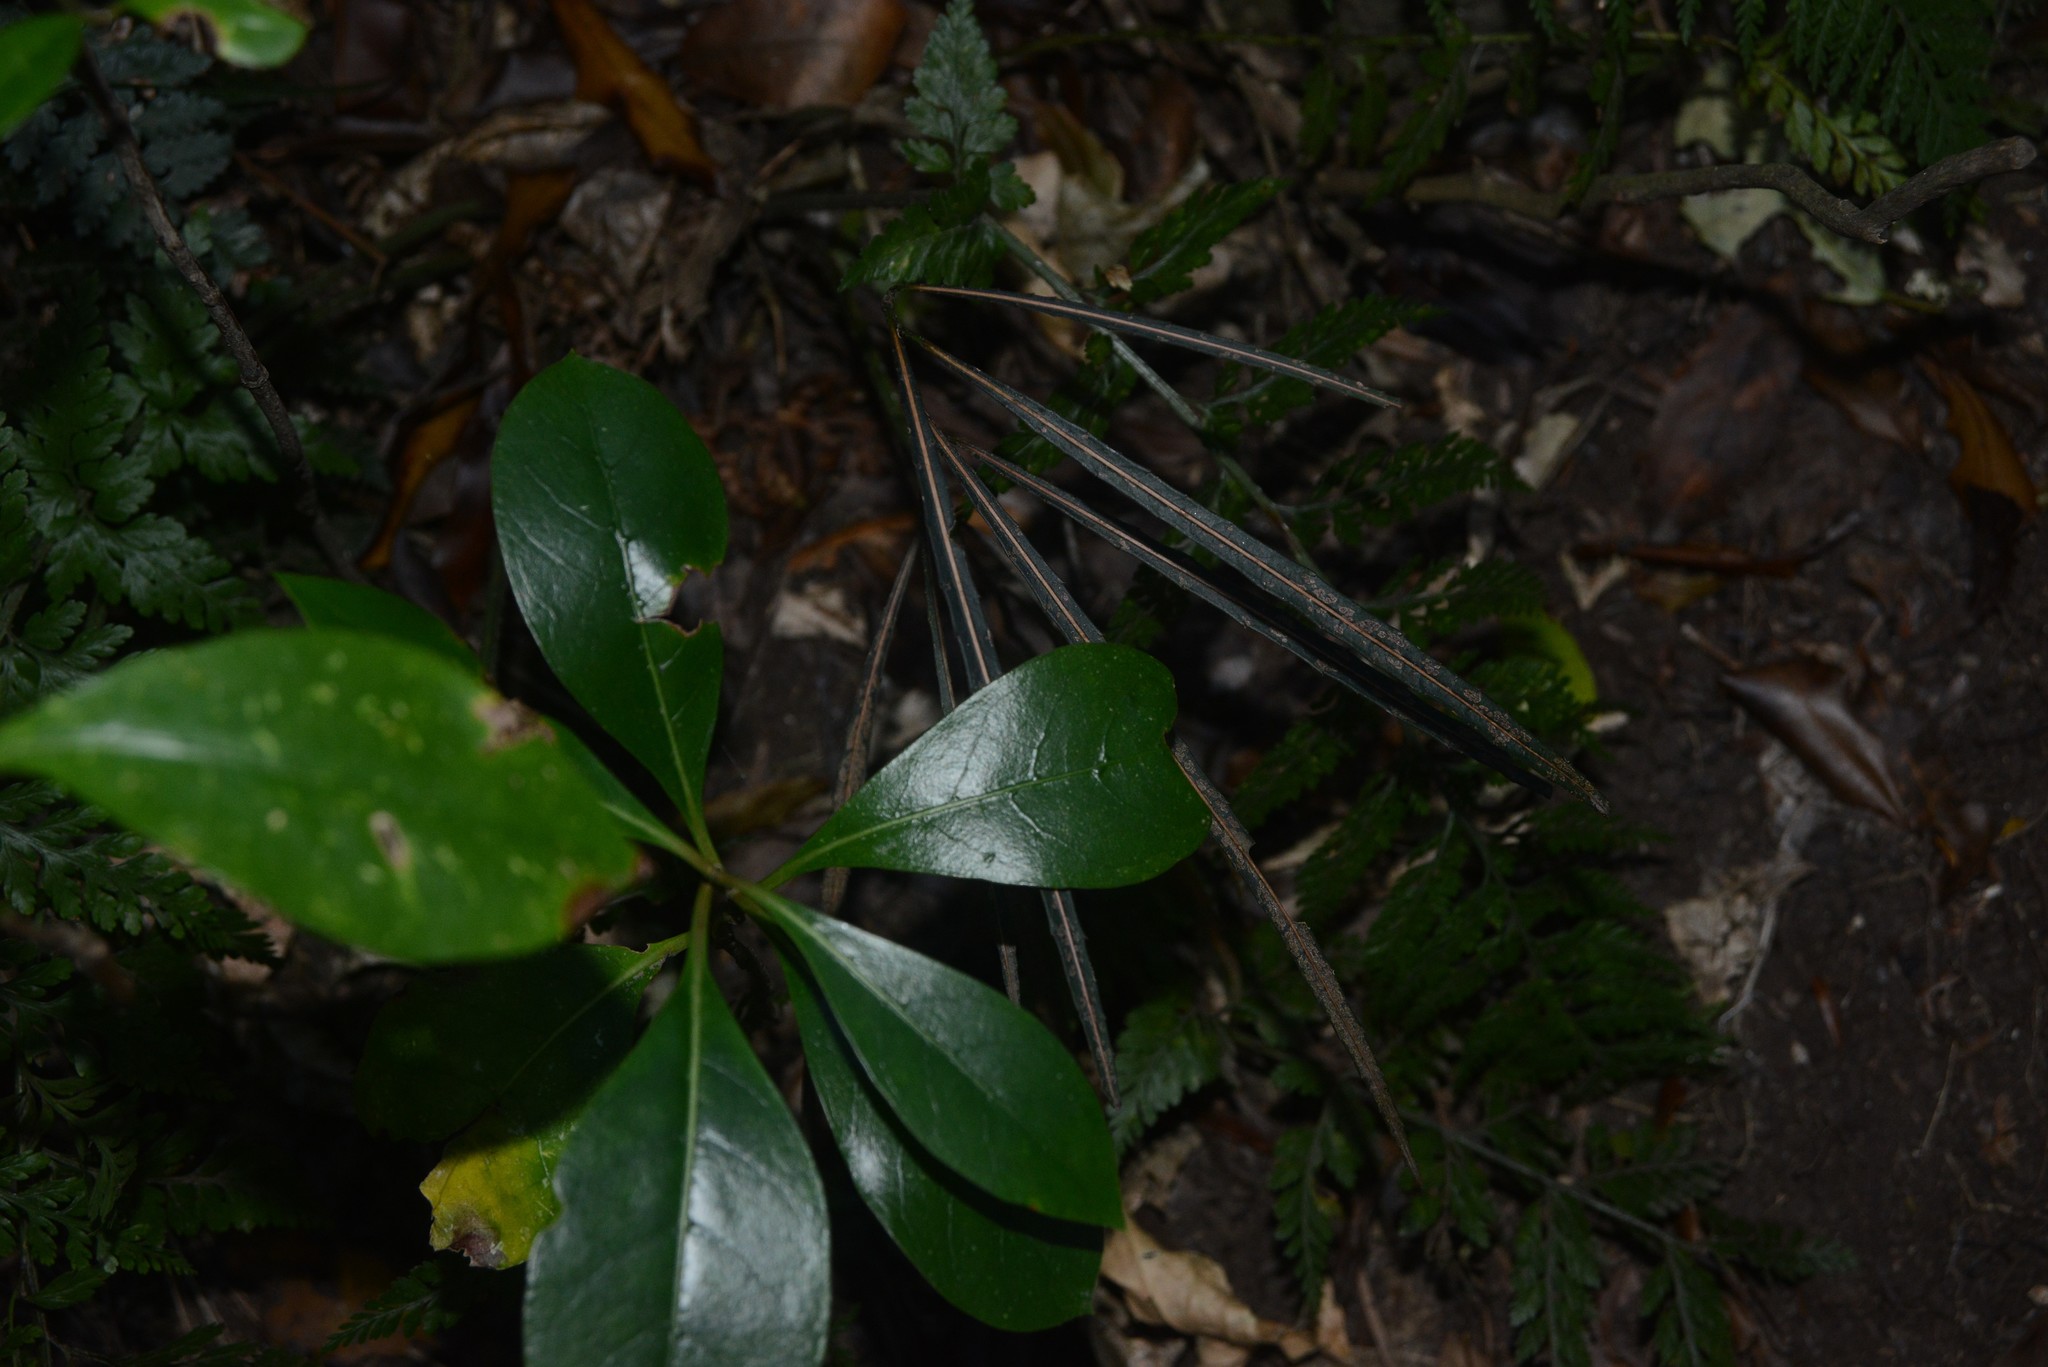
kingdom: Plantae
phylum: Tracheophyta
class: Magnoliopsida
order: Apiales
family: Araliaceae
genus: Pseudopanax
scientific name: Pseudopanax crassifolius
